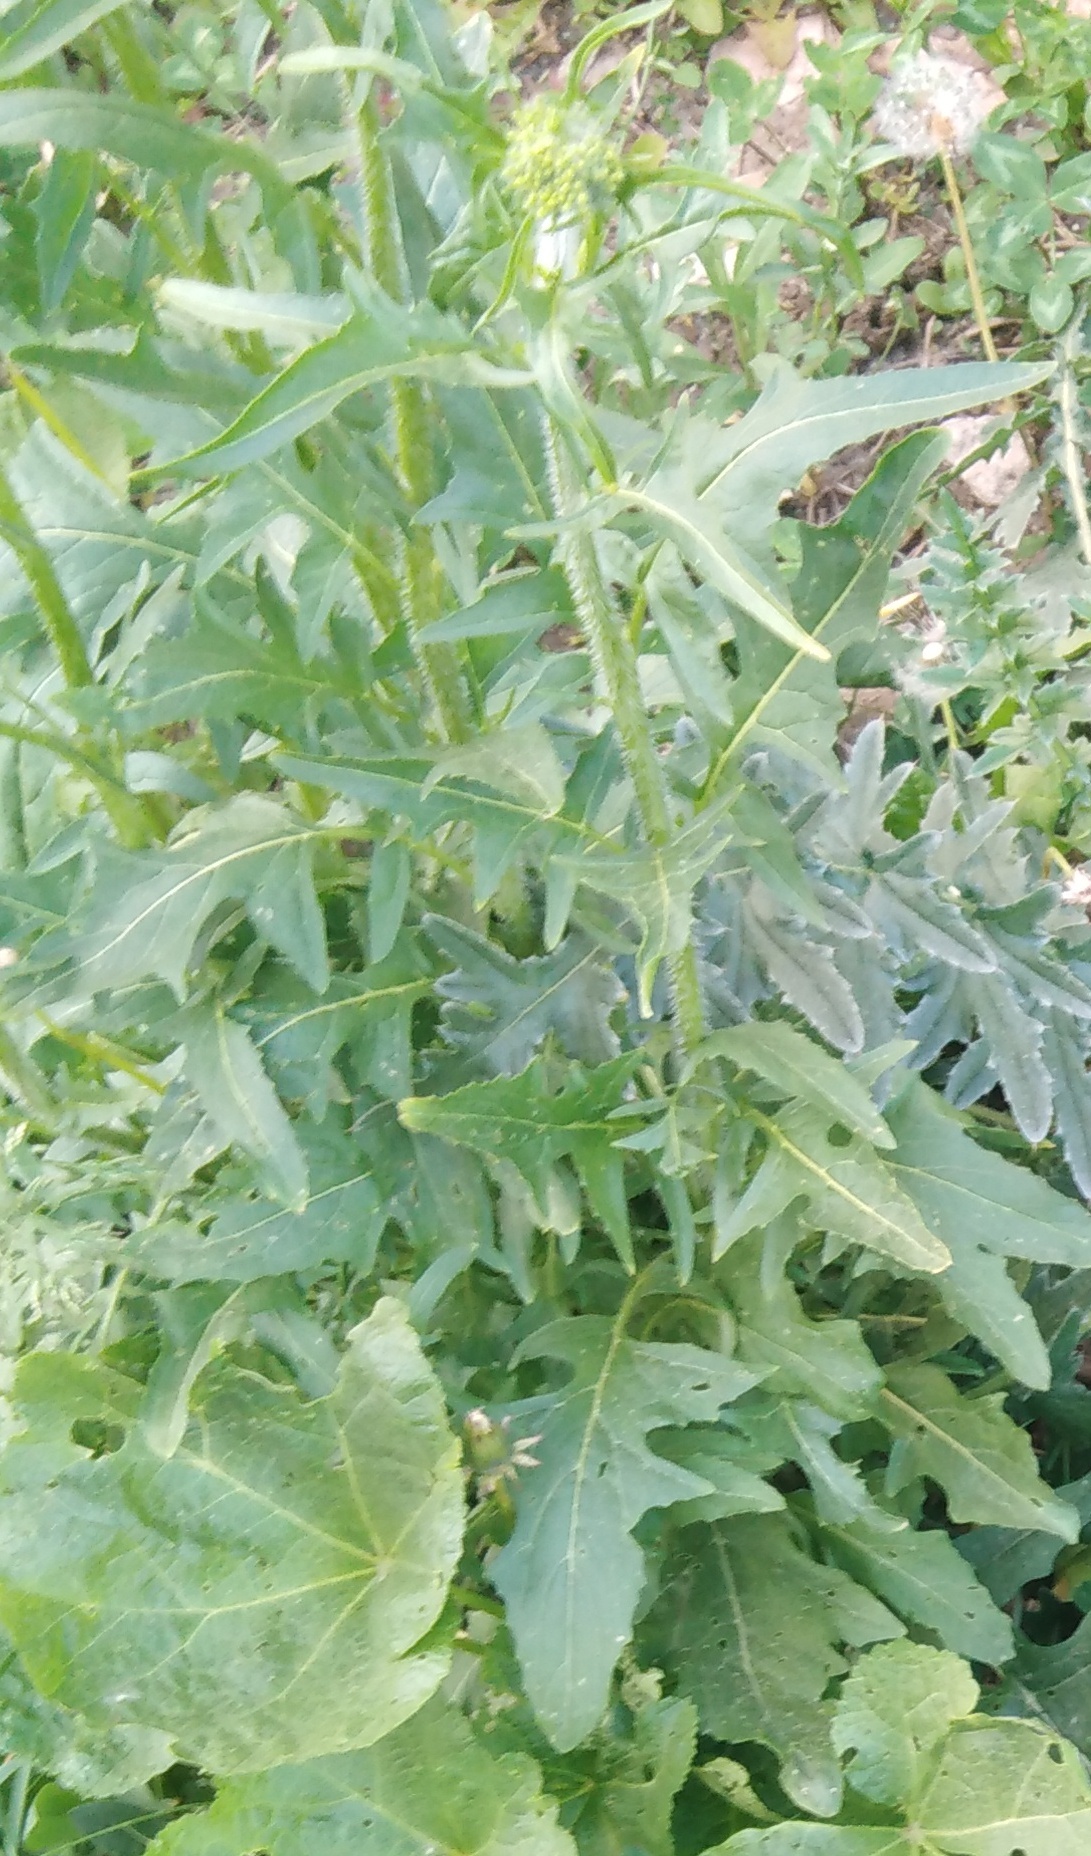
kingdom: Plantae
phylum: Tracheophyta
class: Magnoliopsida
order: Brassicales
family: Brassicaceae
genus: Sisymbrium
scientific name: Sisymbrium loeselii
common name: False london-rocket
